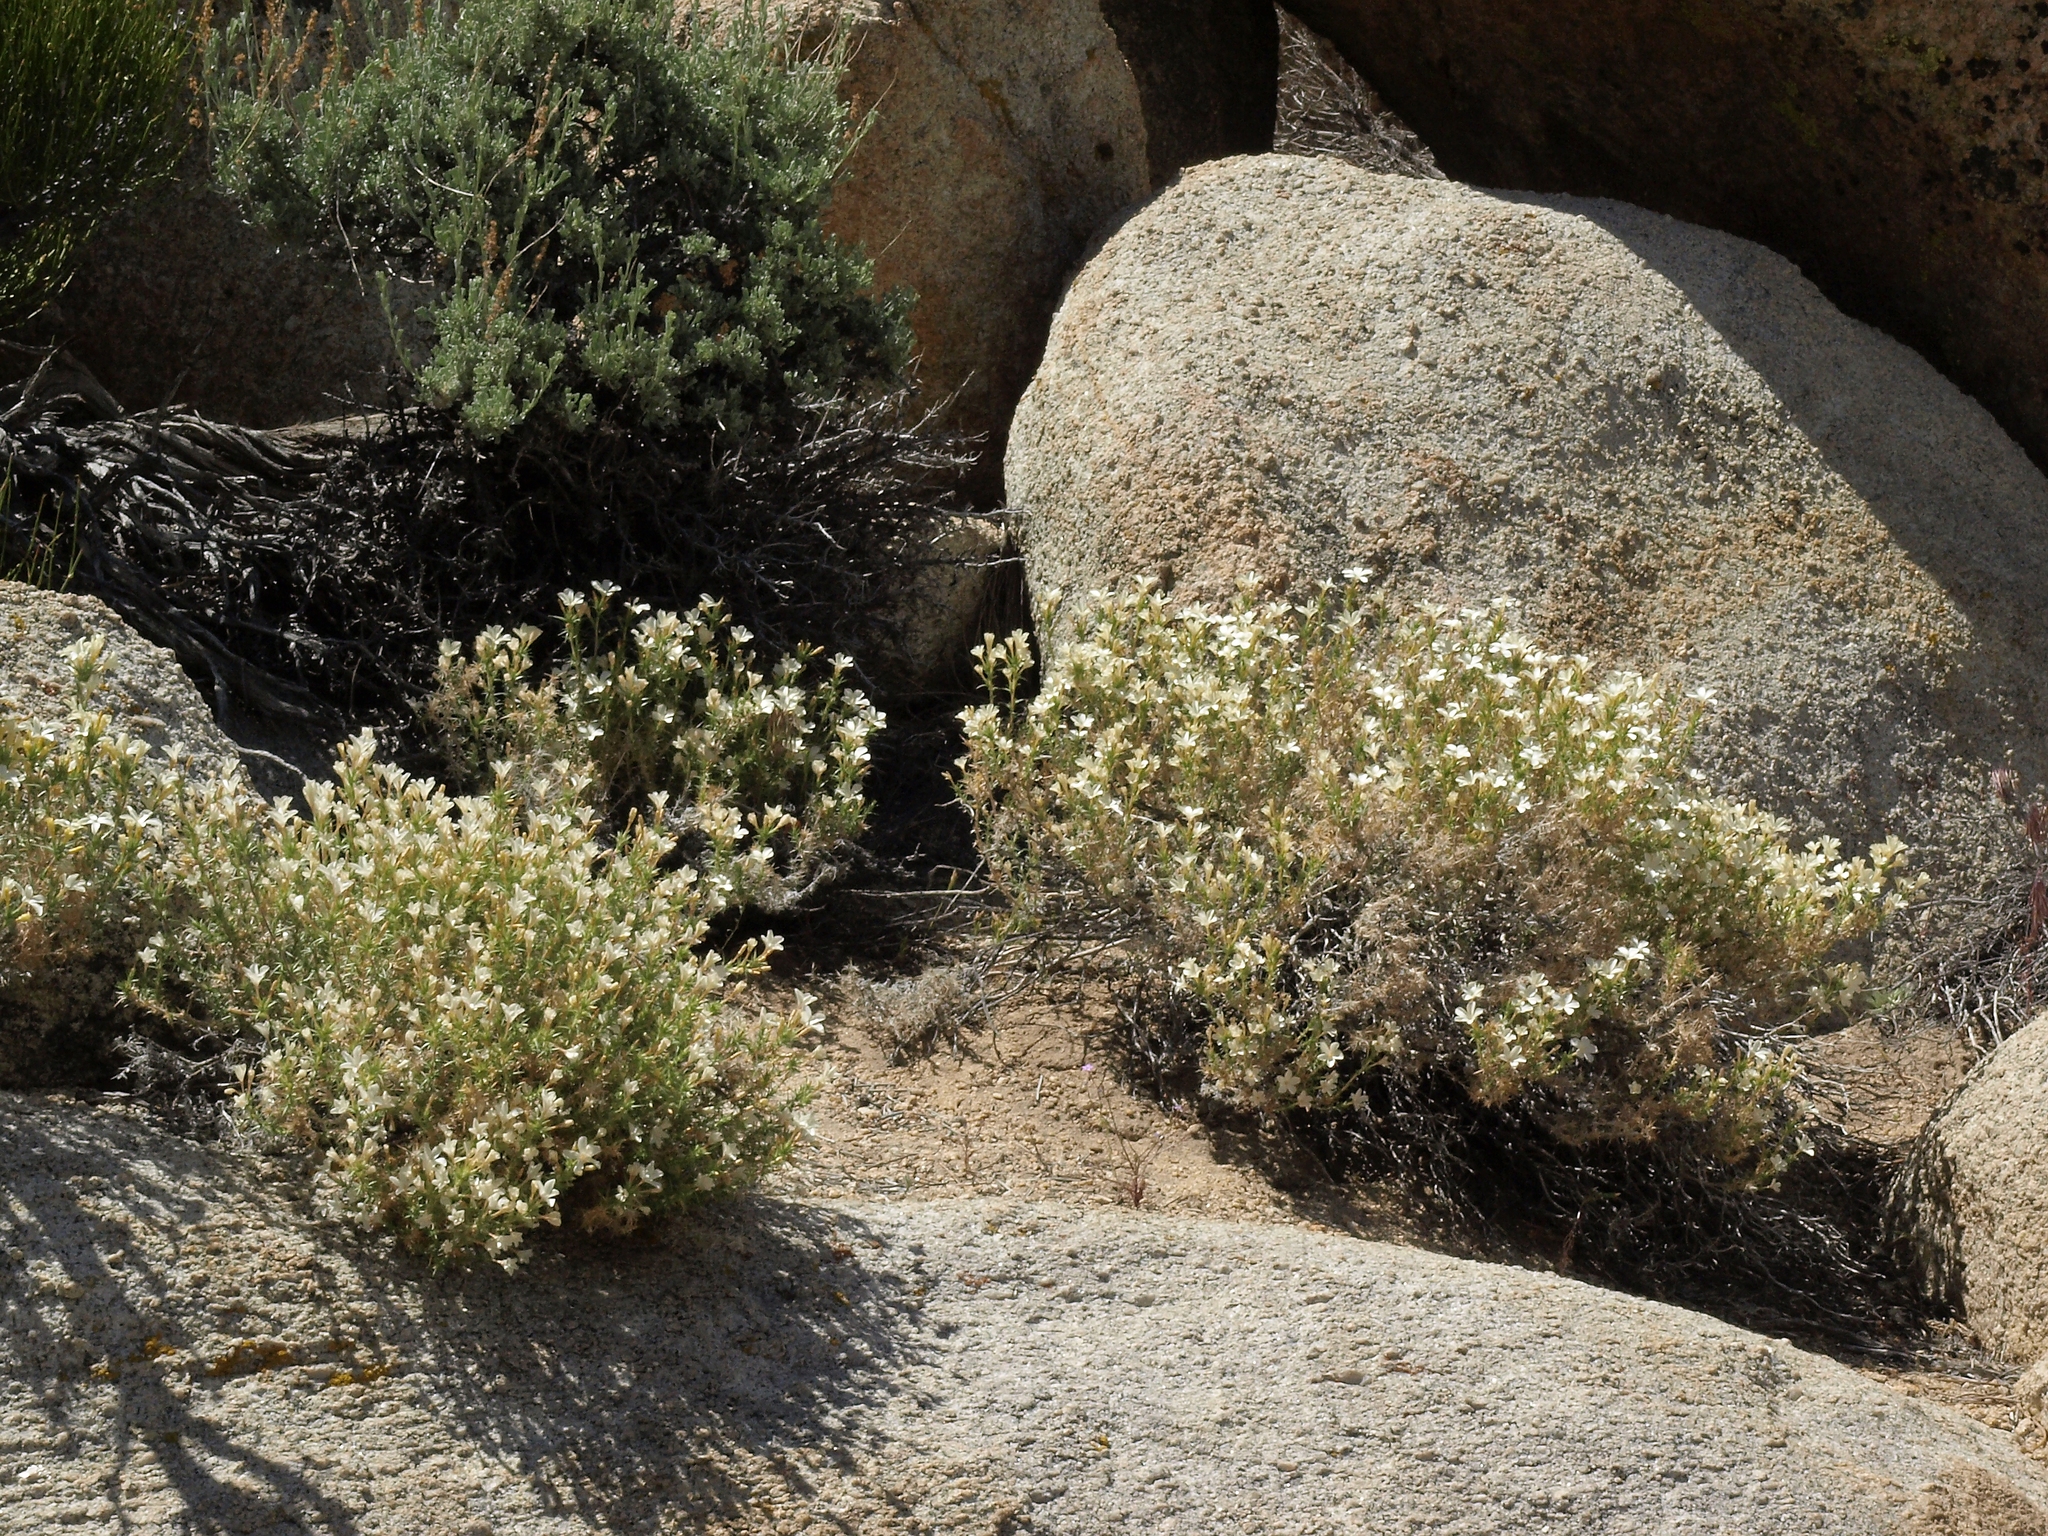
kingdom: Plantae
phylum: Tracheophyta
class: Magnoliopsida
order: Ericales
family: Polemoniaceae
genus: Linanthus
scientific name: Linanthus pungens
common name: Granite prickly phlox
